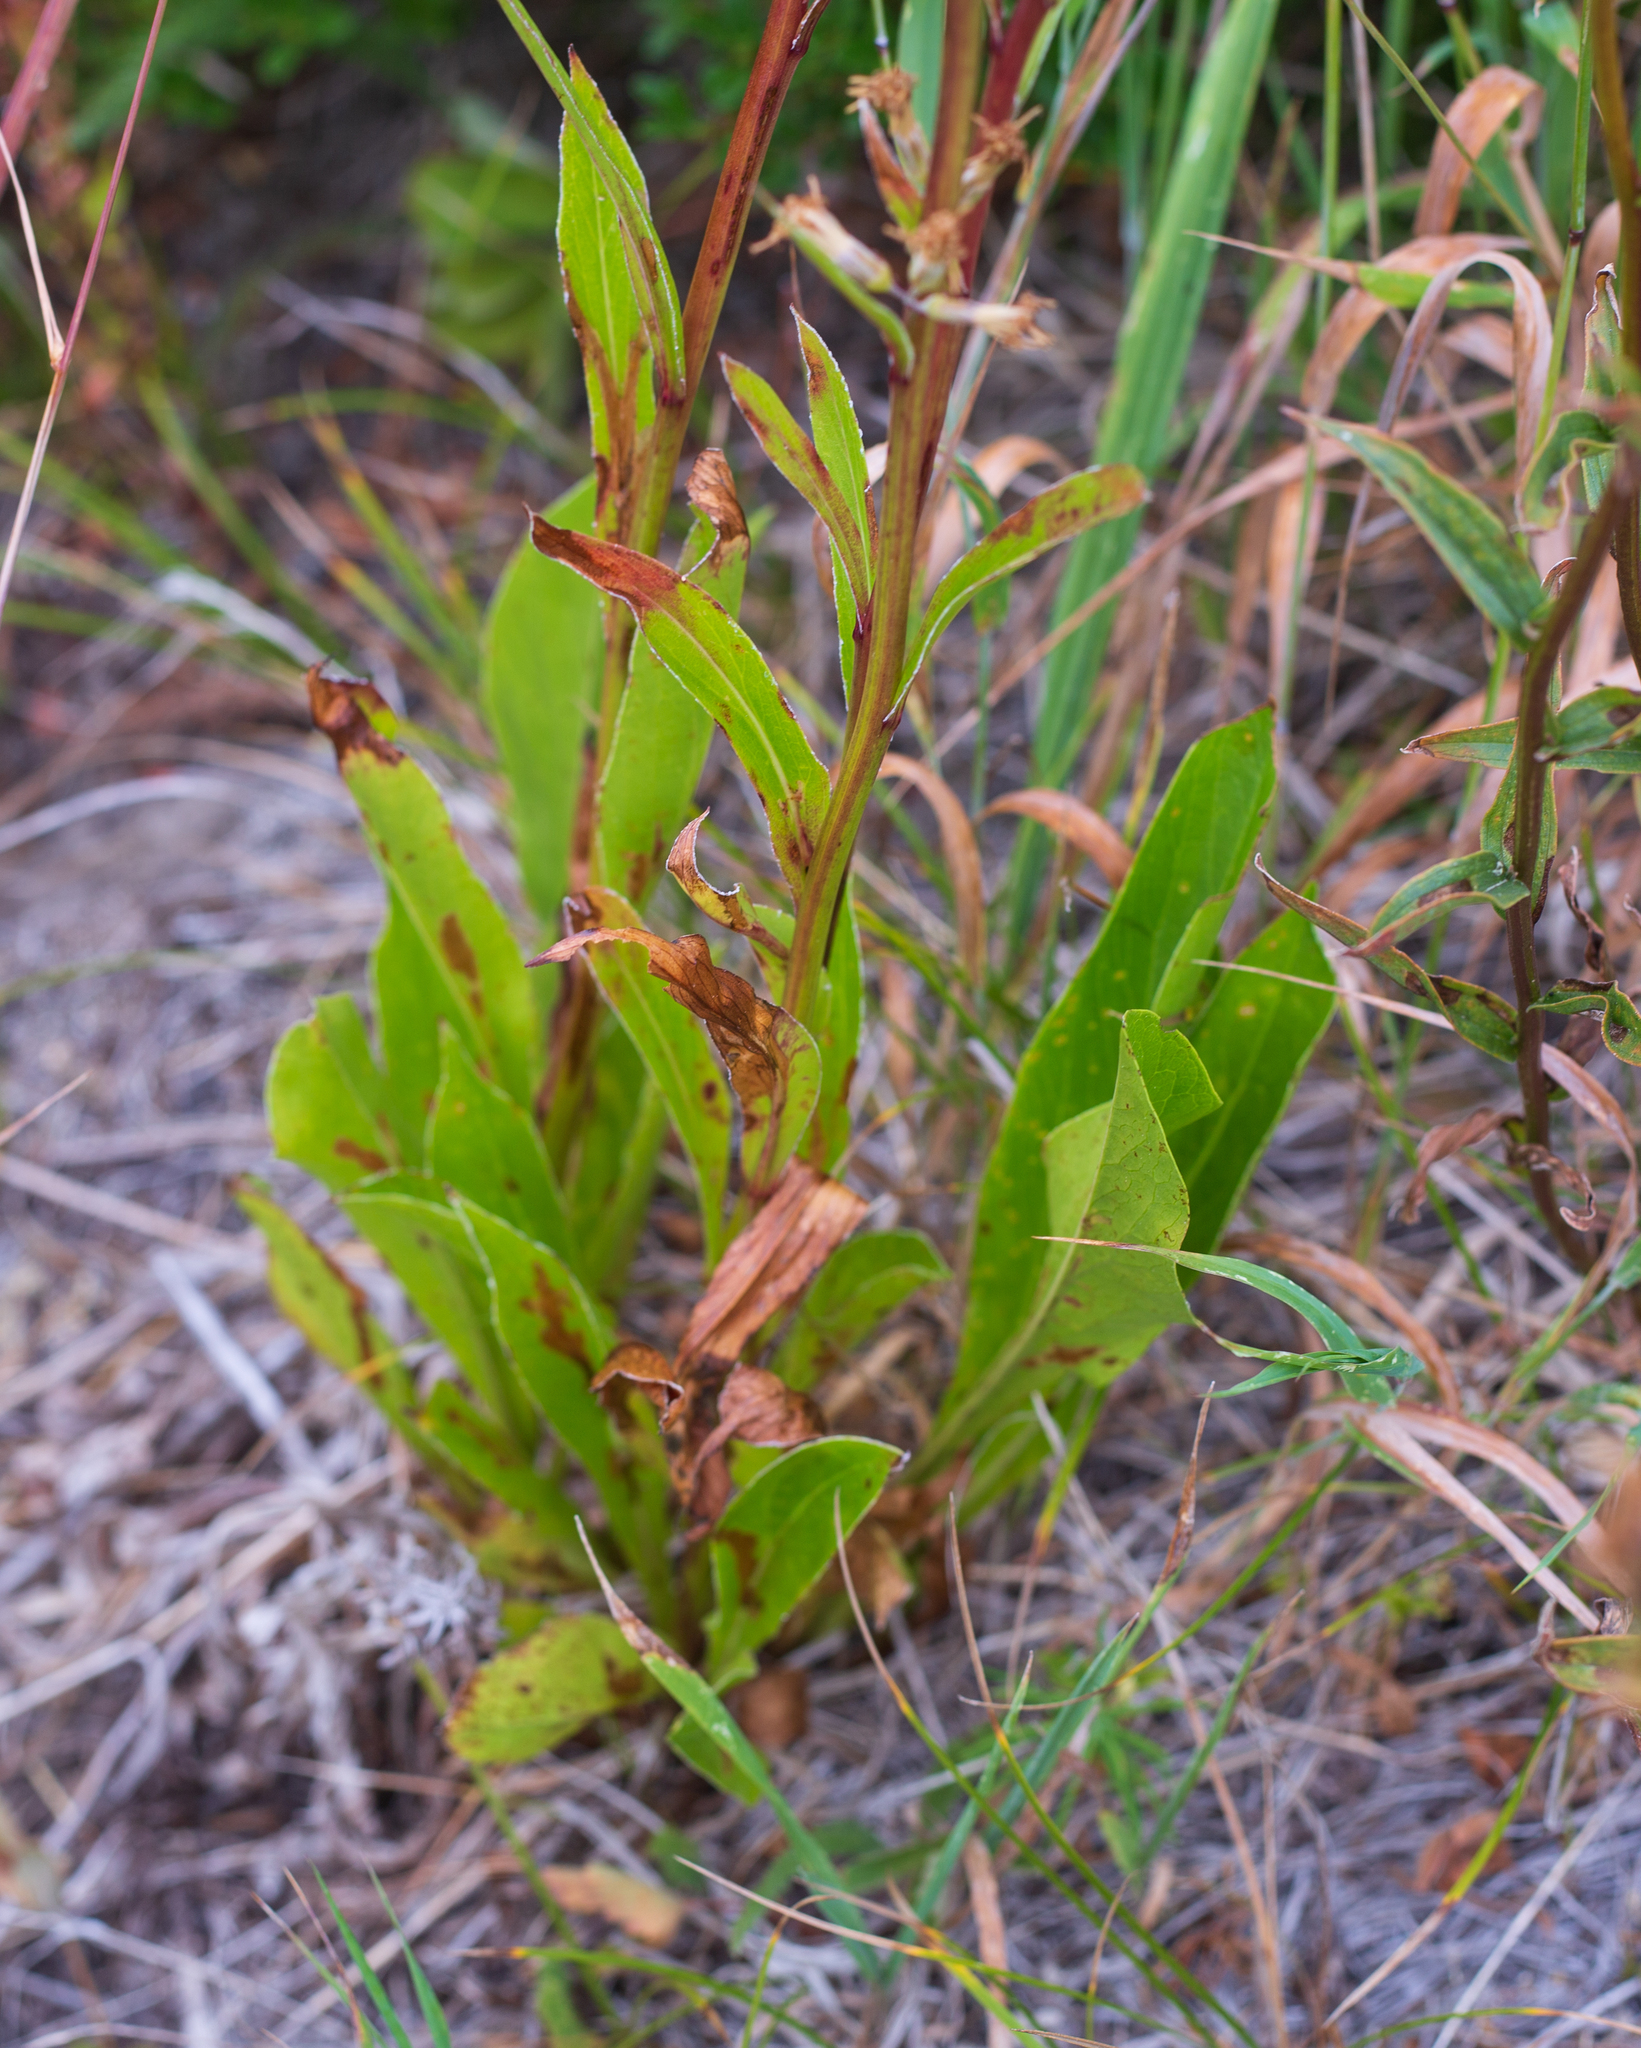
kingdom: Plantae
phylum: Tracheophyta
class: Magnoliopsida
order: Asterales
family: Asteraceae
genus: Rainiera
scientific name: Rainiera stricta
